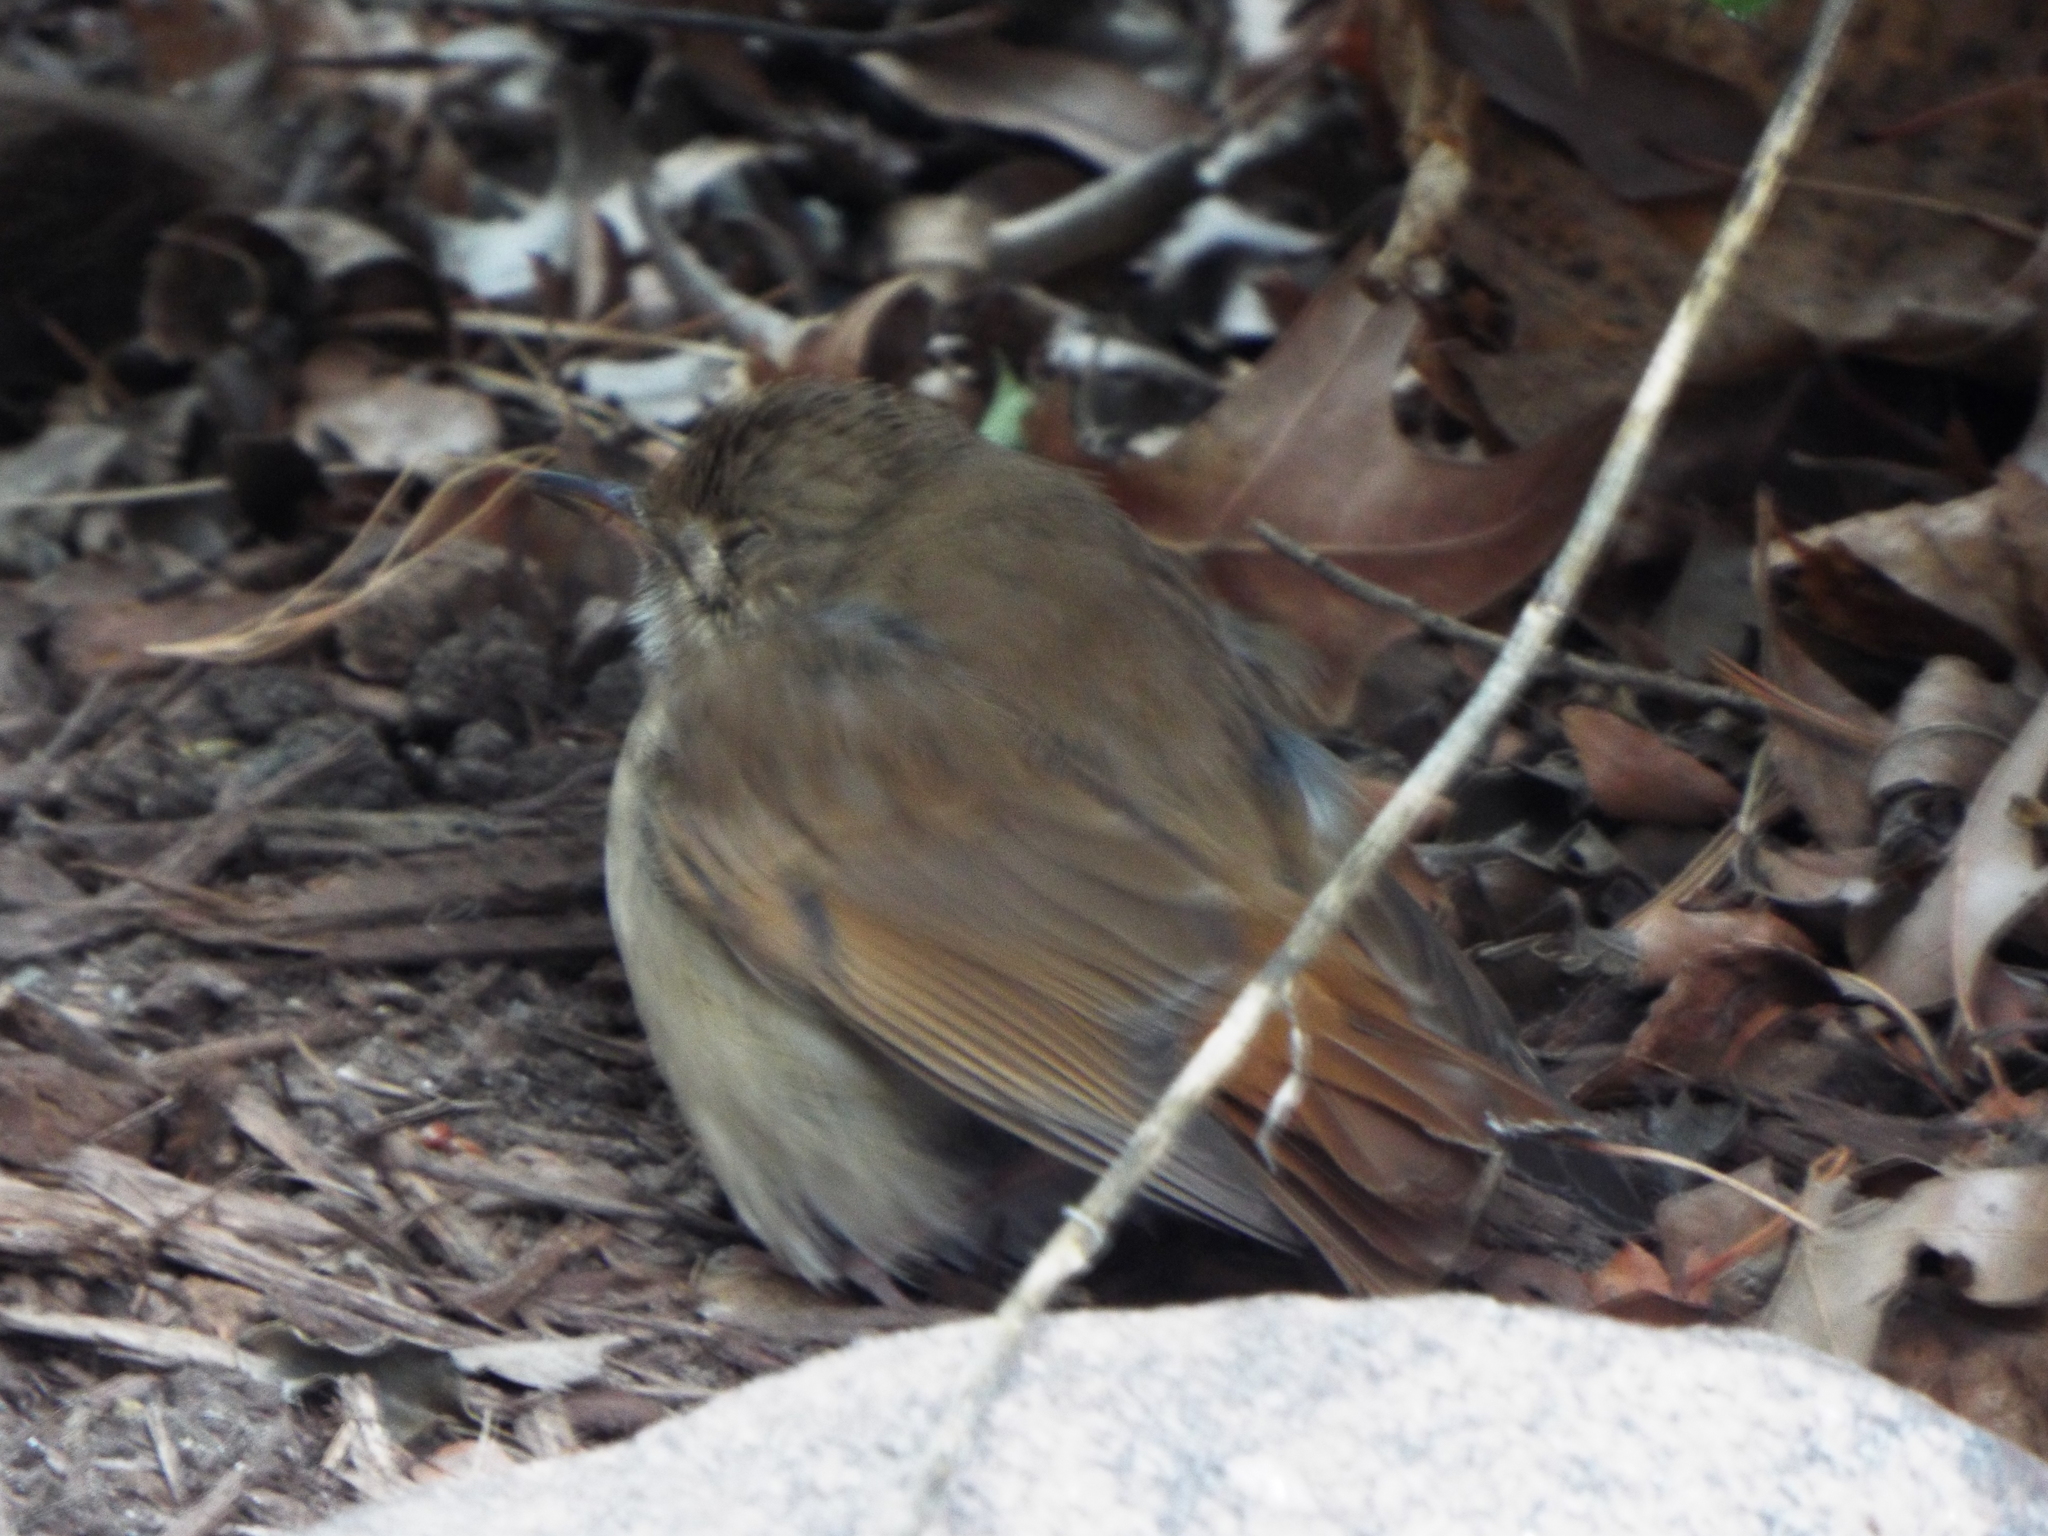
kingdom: Animalia
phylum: Chordata
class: Aves
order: Passeriformes
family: Turdidae
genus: Catharus
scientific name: Catharus guttatus
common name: Hermit thrush
